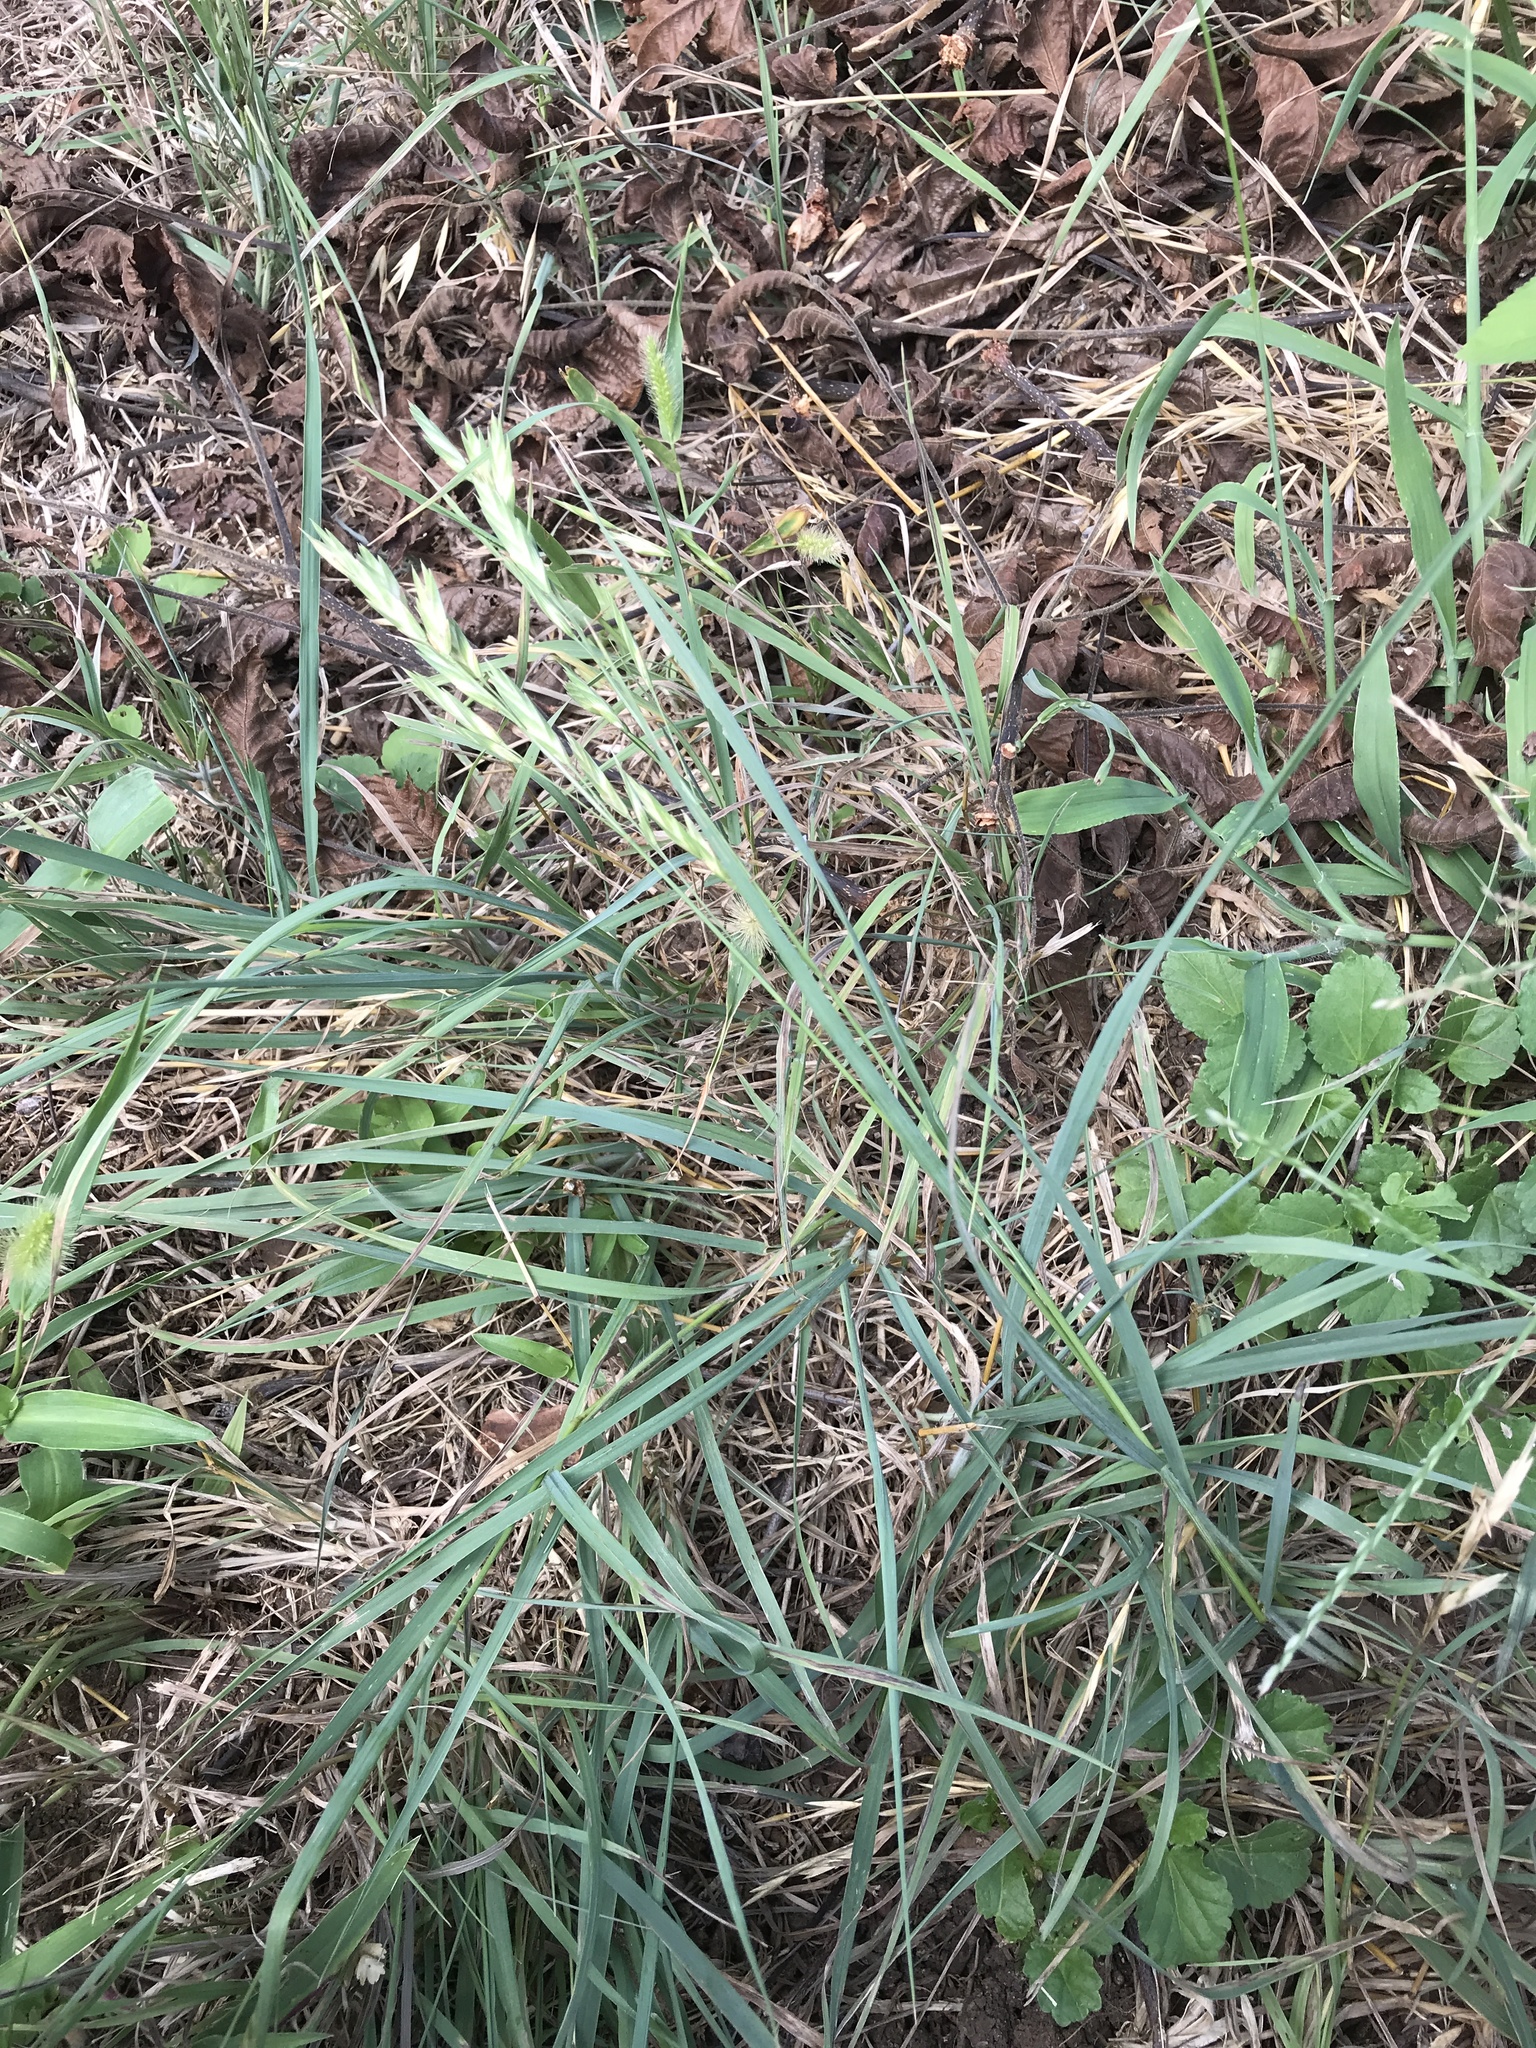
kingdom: Plantae
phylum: Tracheophyta
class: Liliopsida
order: Poales
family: Poaceae
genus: Bromus
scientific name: Bromus catharticus
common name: Rescuegrass
